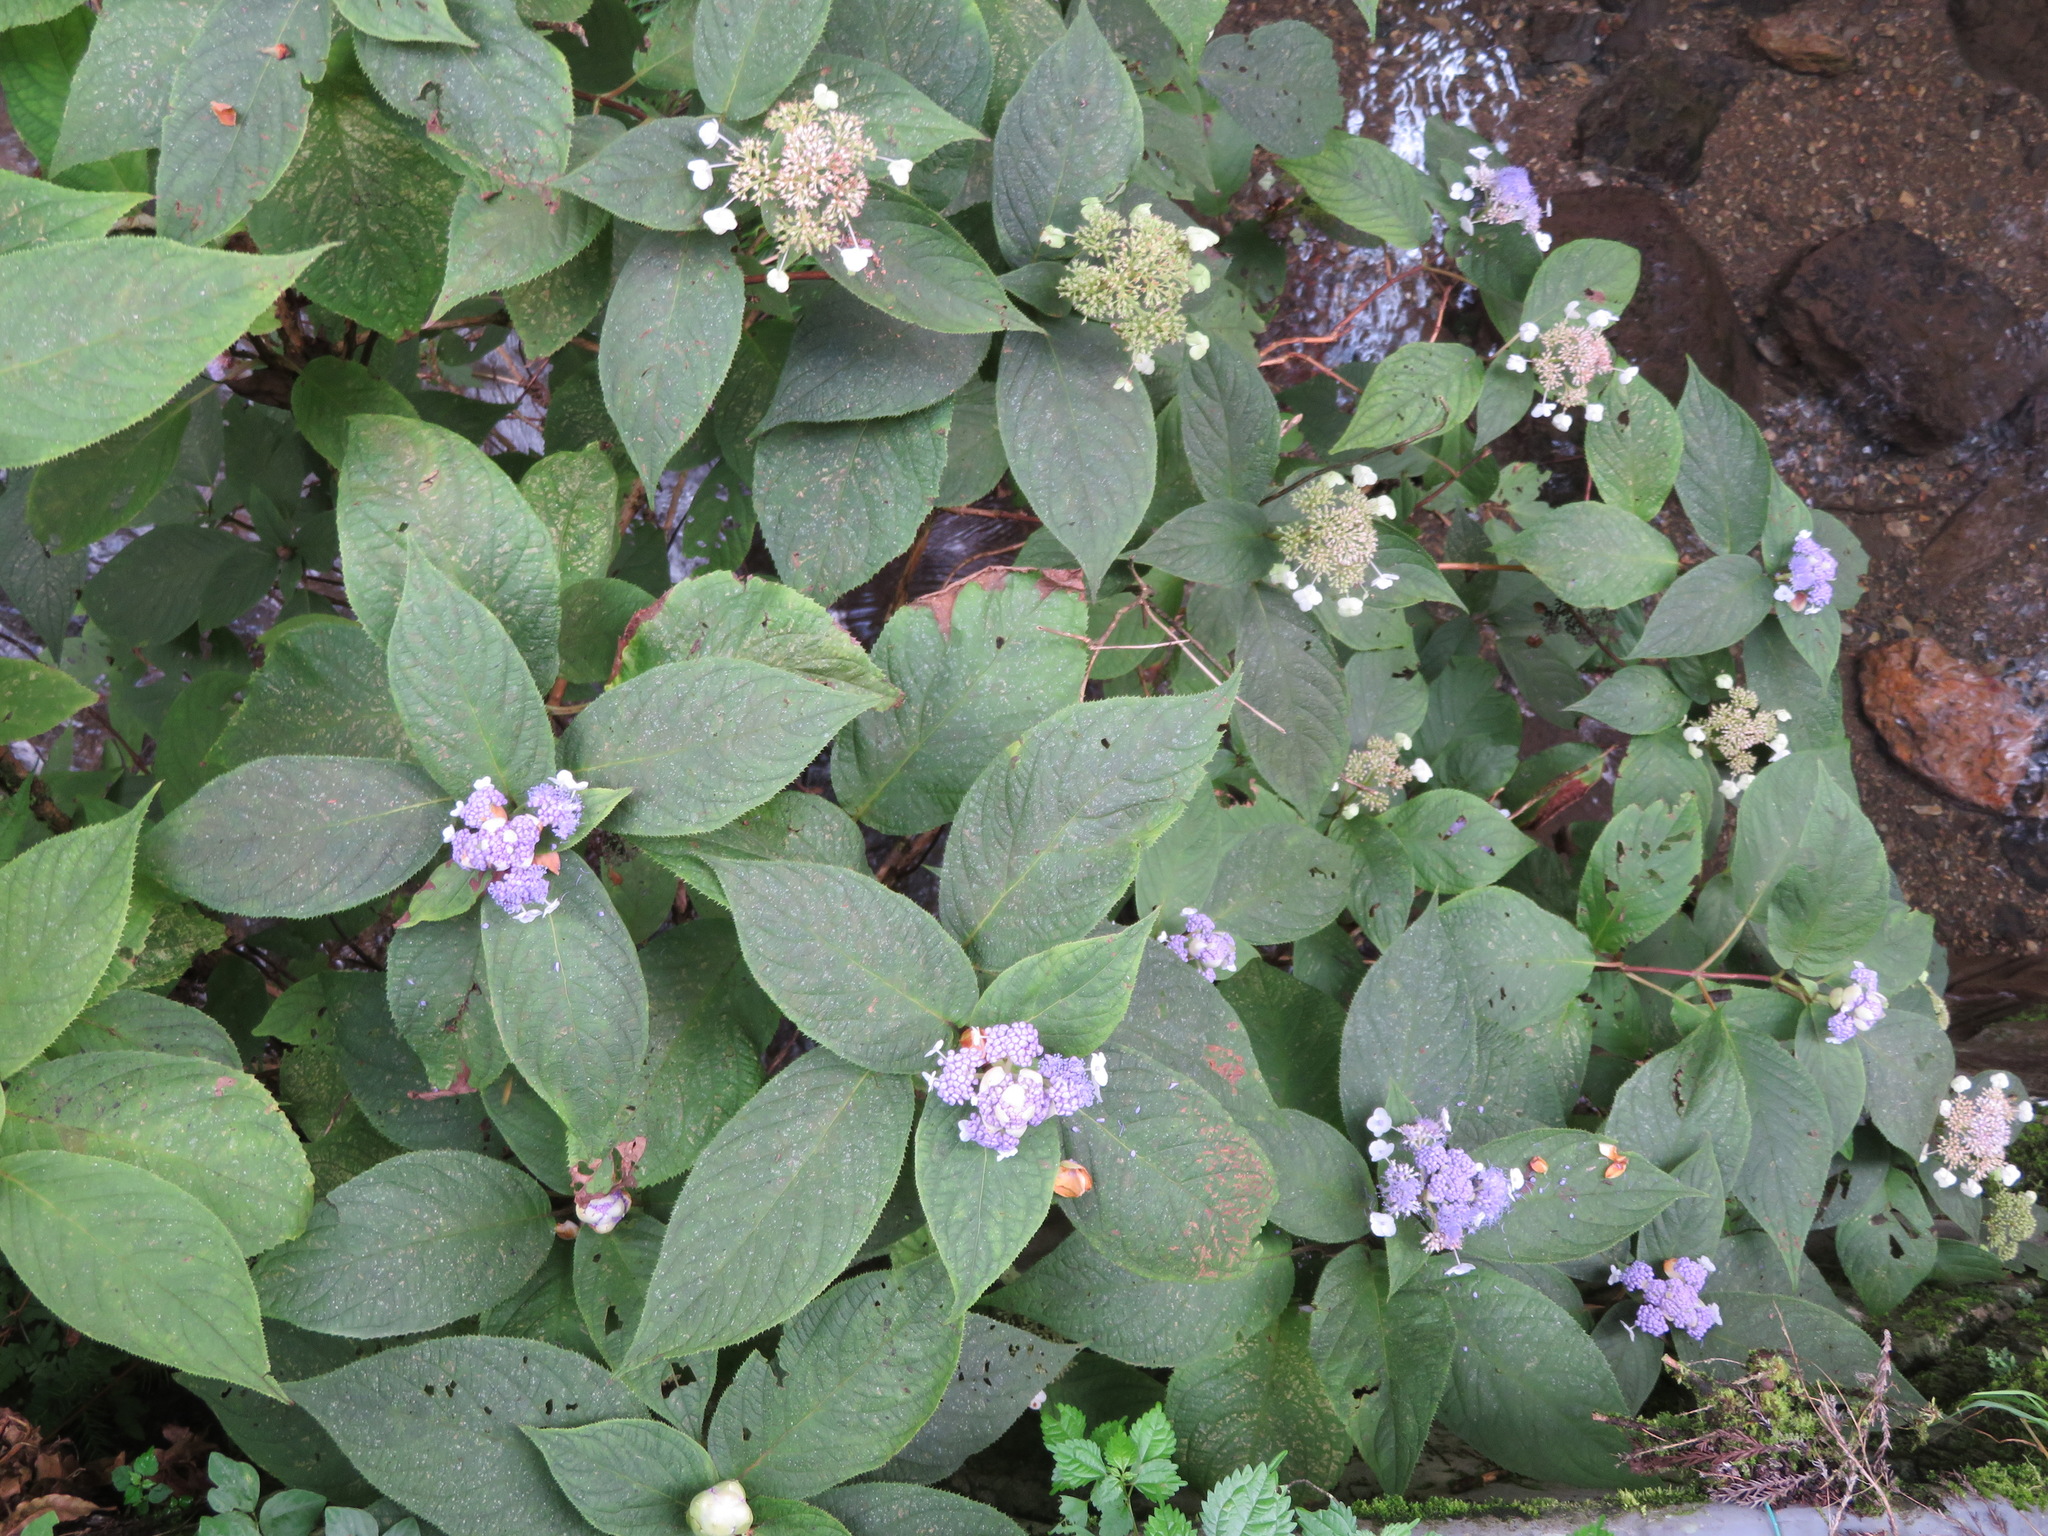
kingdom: Plantae
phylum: Tracheophyta
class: Magnoliopsida
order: Cornales
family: Hydrangeaceae
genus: Hydrangea
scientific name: Hydrangea involucrata
